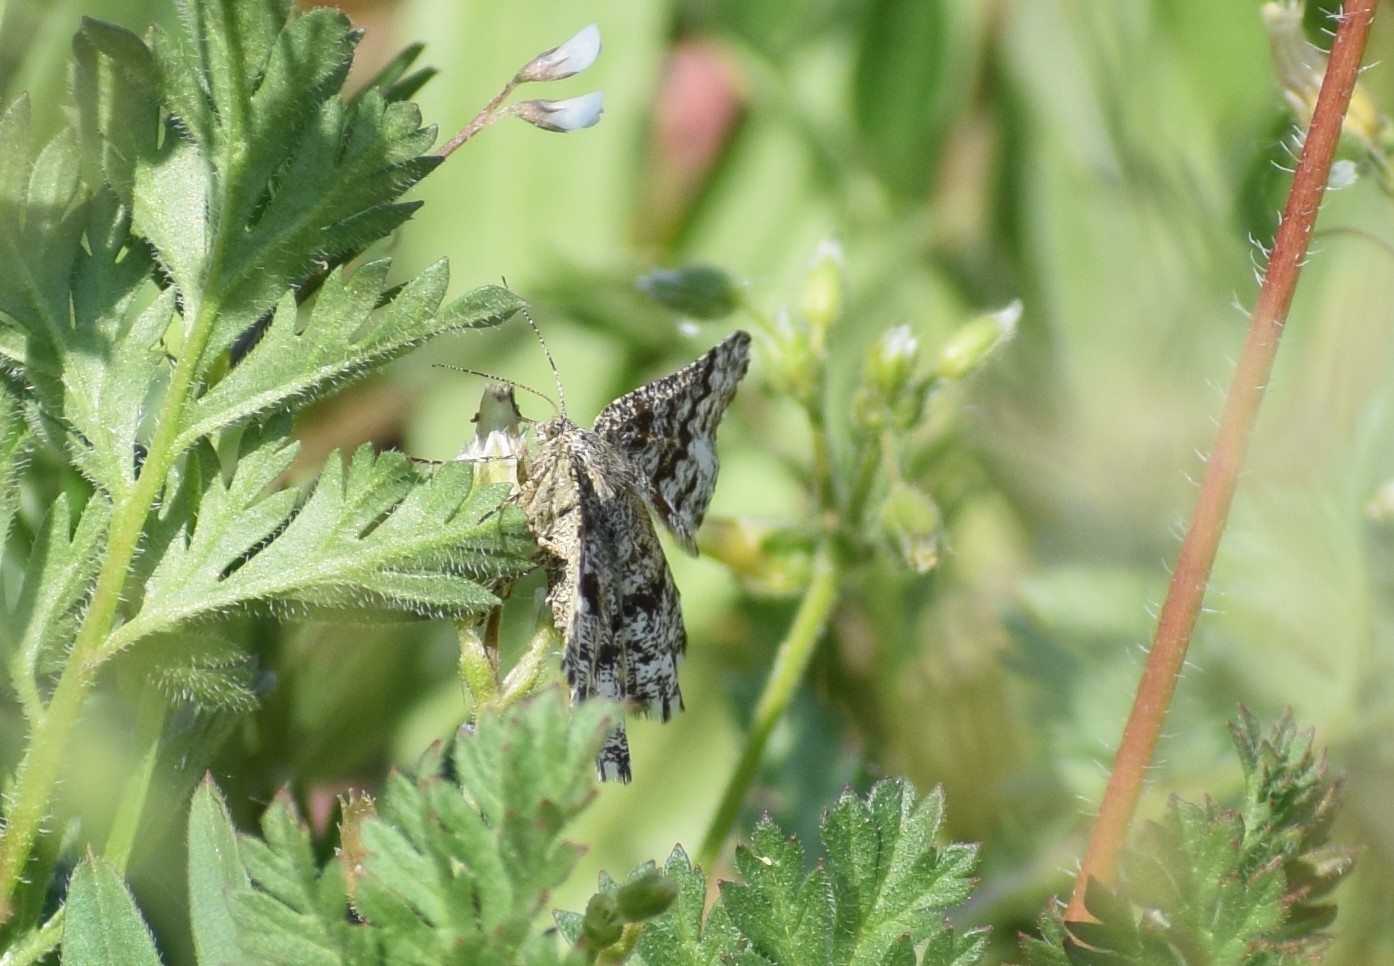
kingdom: Animalia
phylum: Arthropoda
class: Insecta
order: Lepidoptera
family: Geometridae
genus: Ematurga
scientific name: Ematurga atomaria
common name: Common heath
